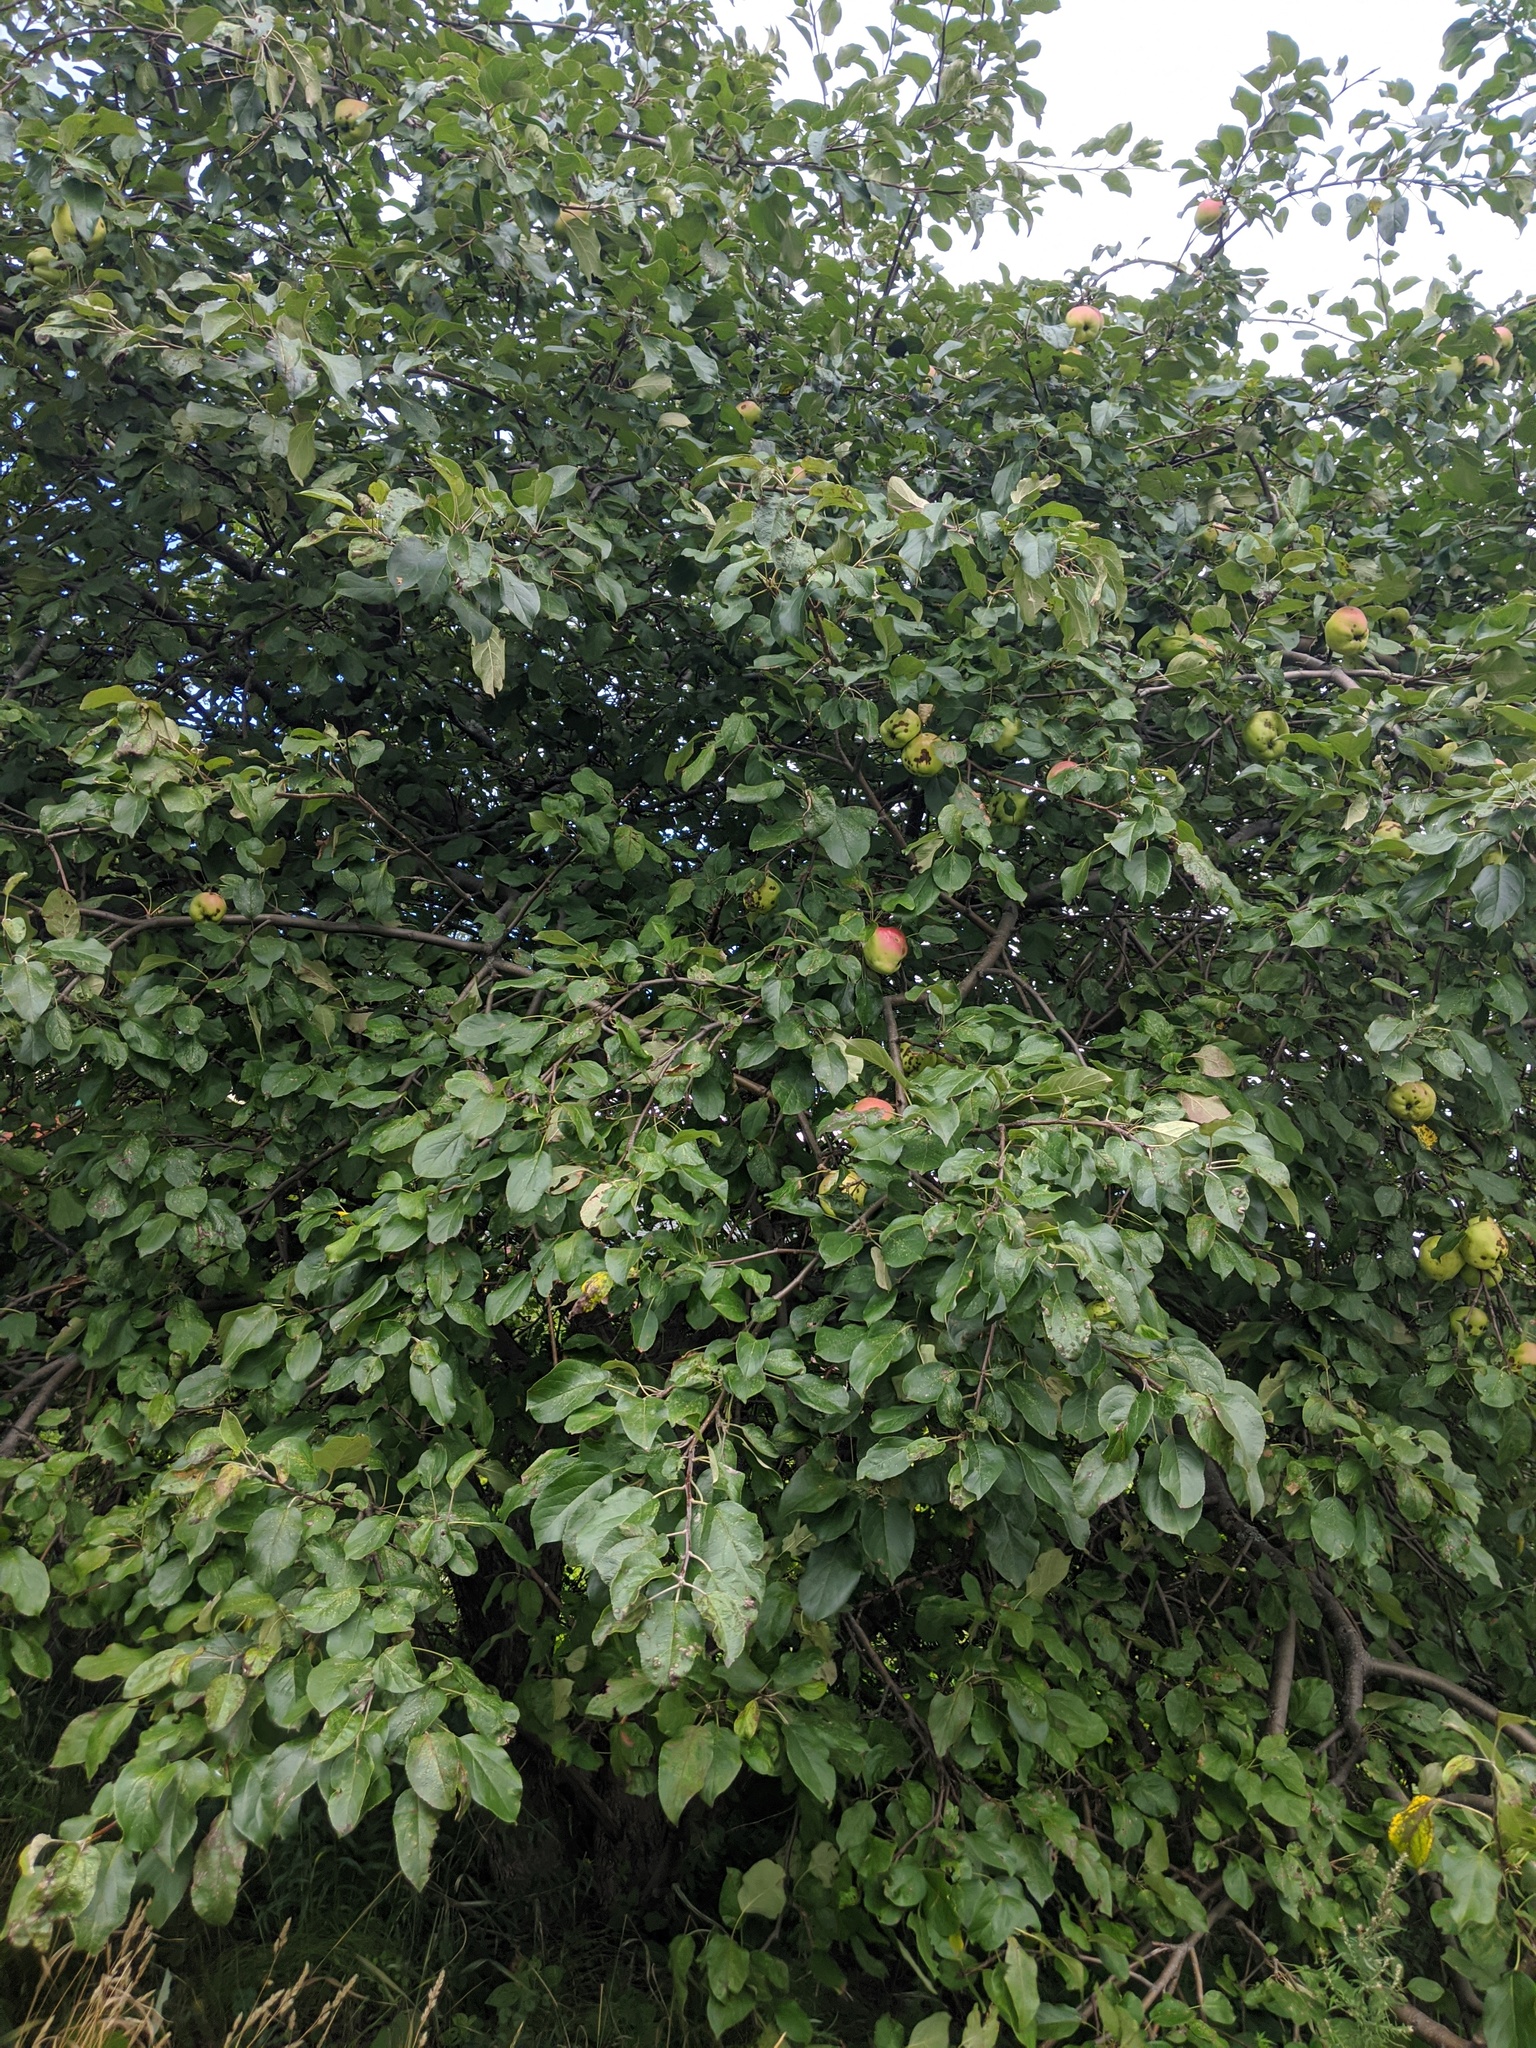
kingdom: Plantae
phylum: Tracheophyta
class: Magnoliopsida
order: Rosales
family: Rosaceae
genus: Malus
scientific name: Malus domestica
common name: Apple
